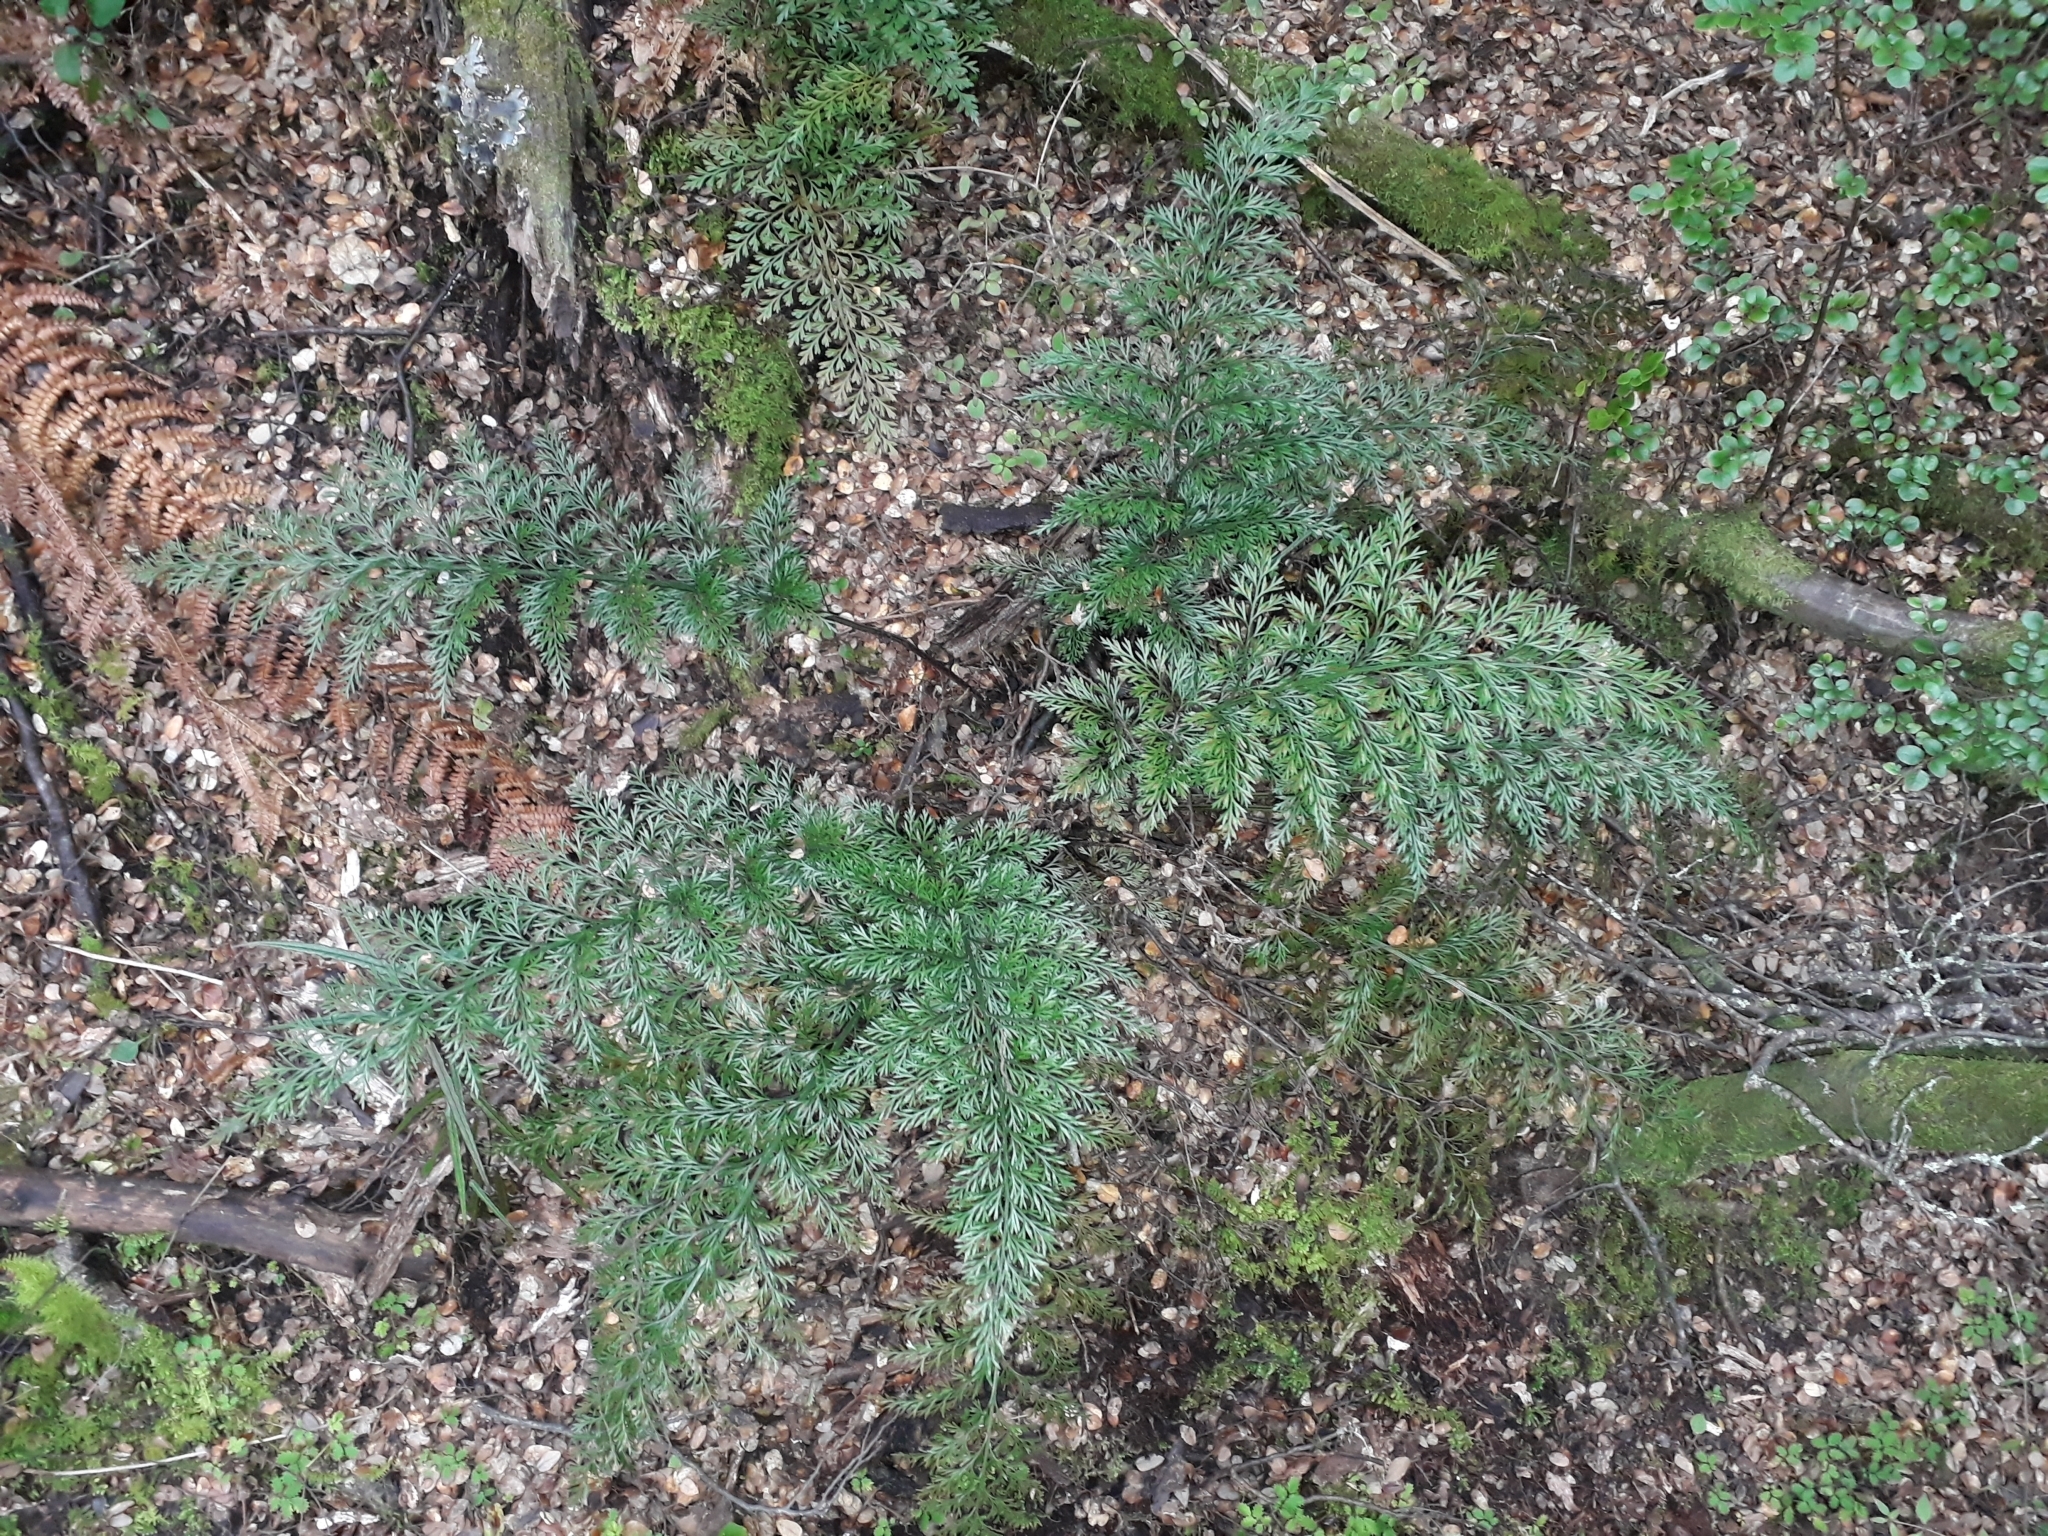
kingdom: Plantae
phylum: Tracheophyta
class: Polypodiopsida
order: Polypodiales
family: Aspleniaceae
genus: Asplenium
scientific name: Asplenium richardii
